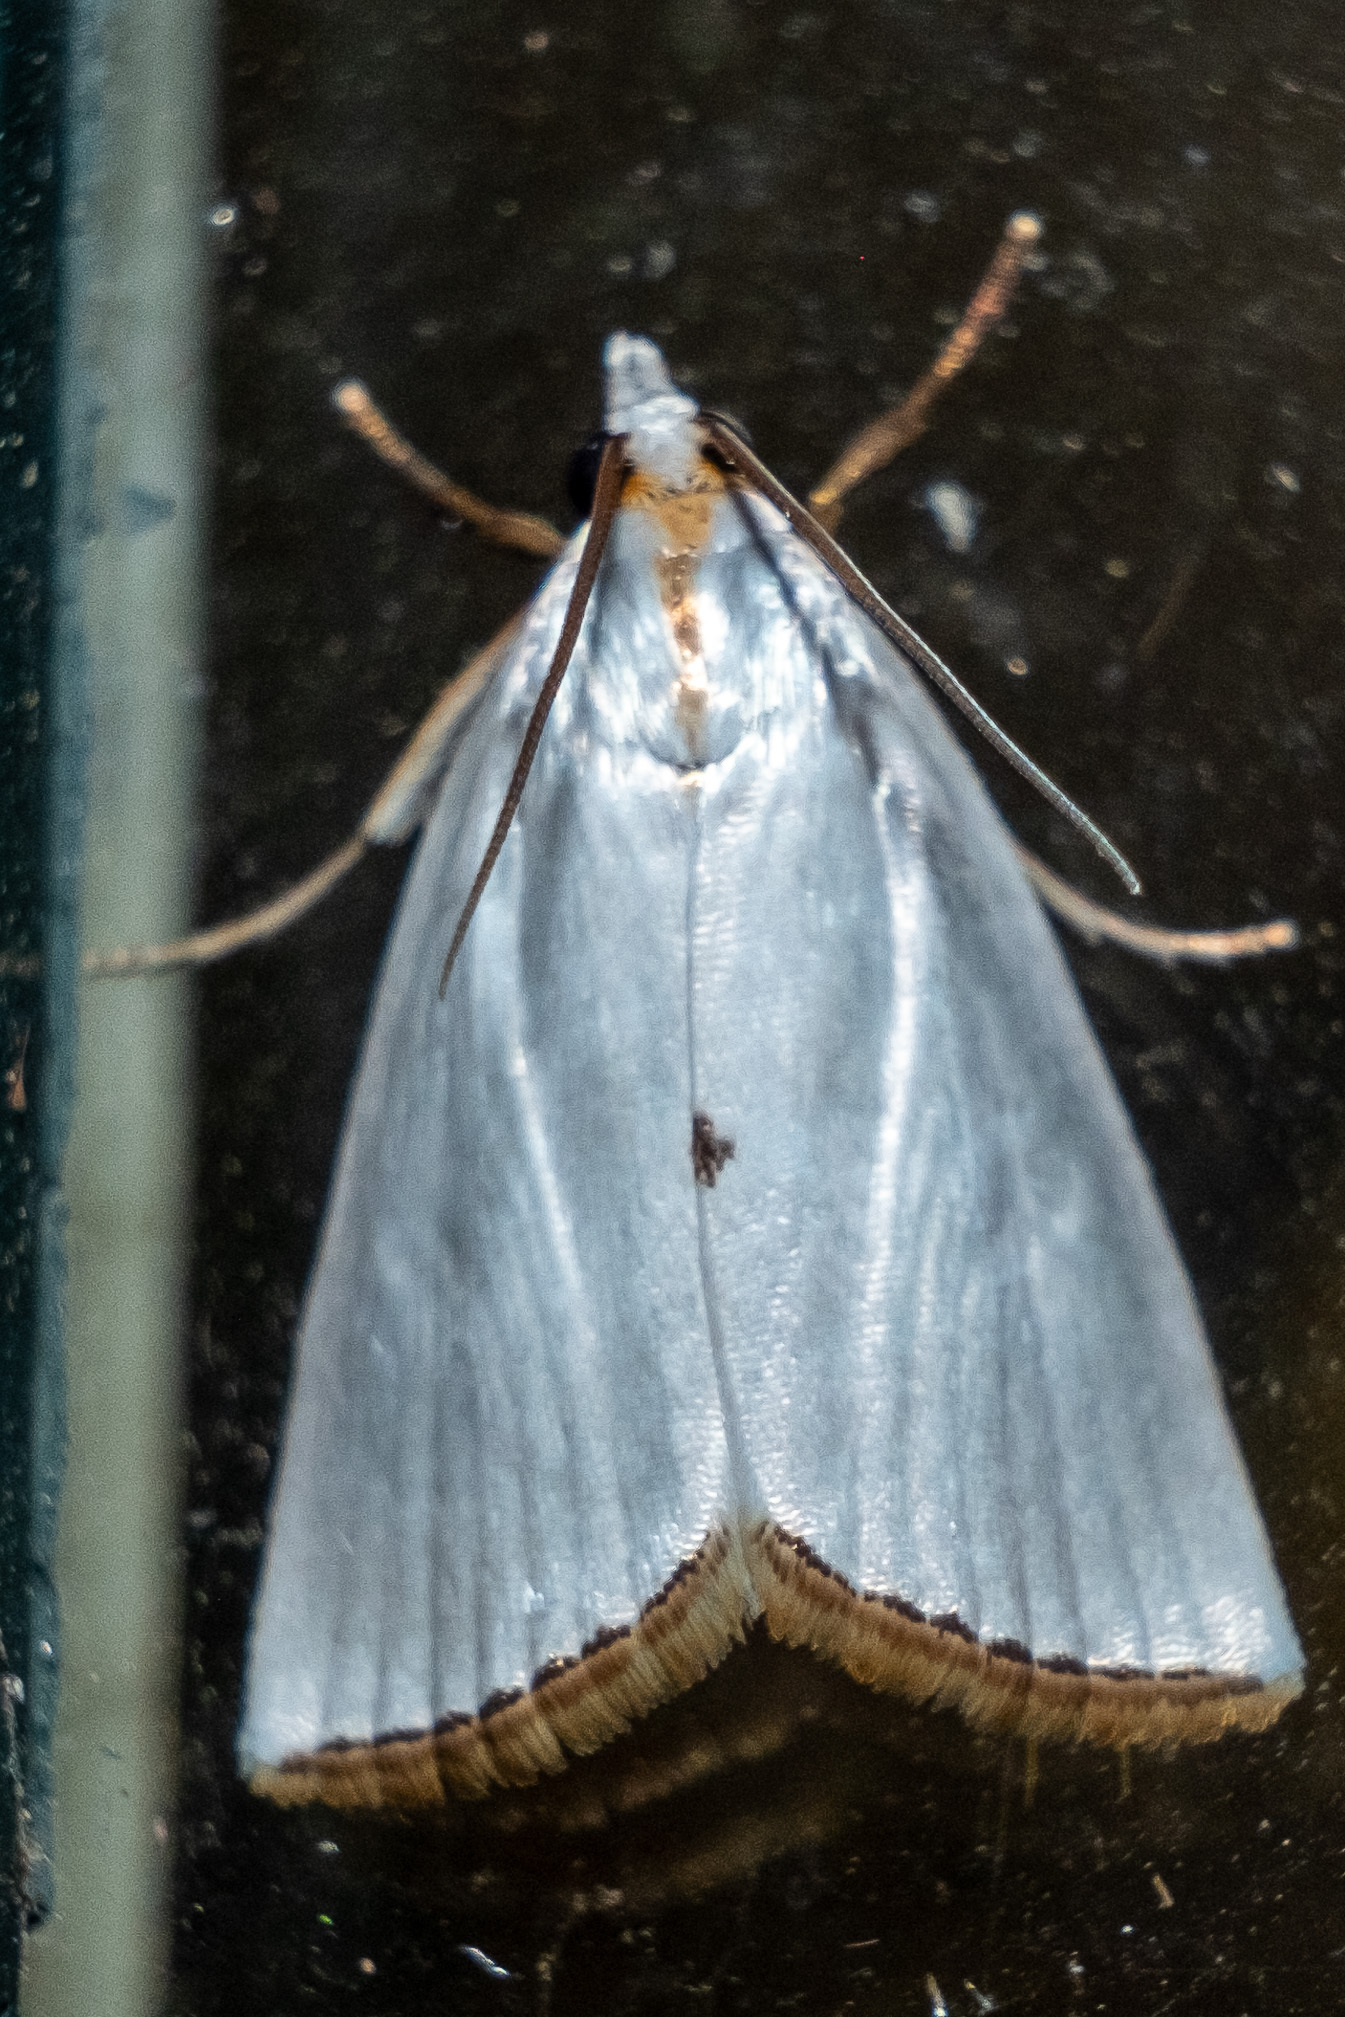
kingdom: Animalia
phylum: Arthropoda
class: Insecta
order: Lepidoptera
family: Crambidae
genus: Argyria
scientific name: Argyria nivalis
